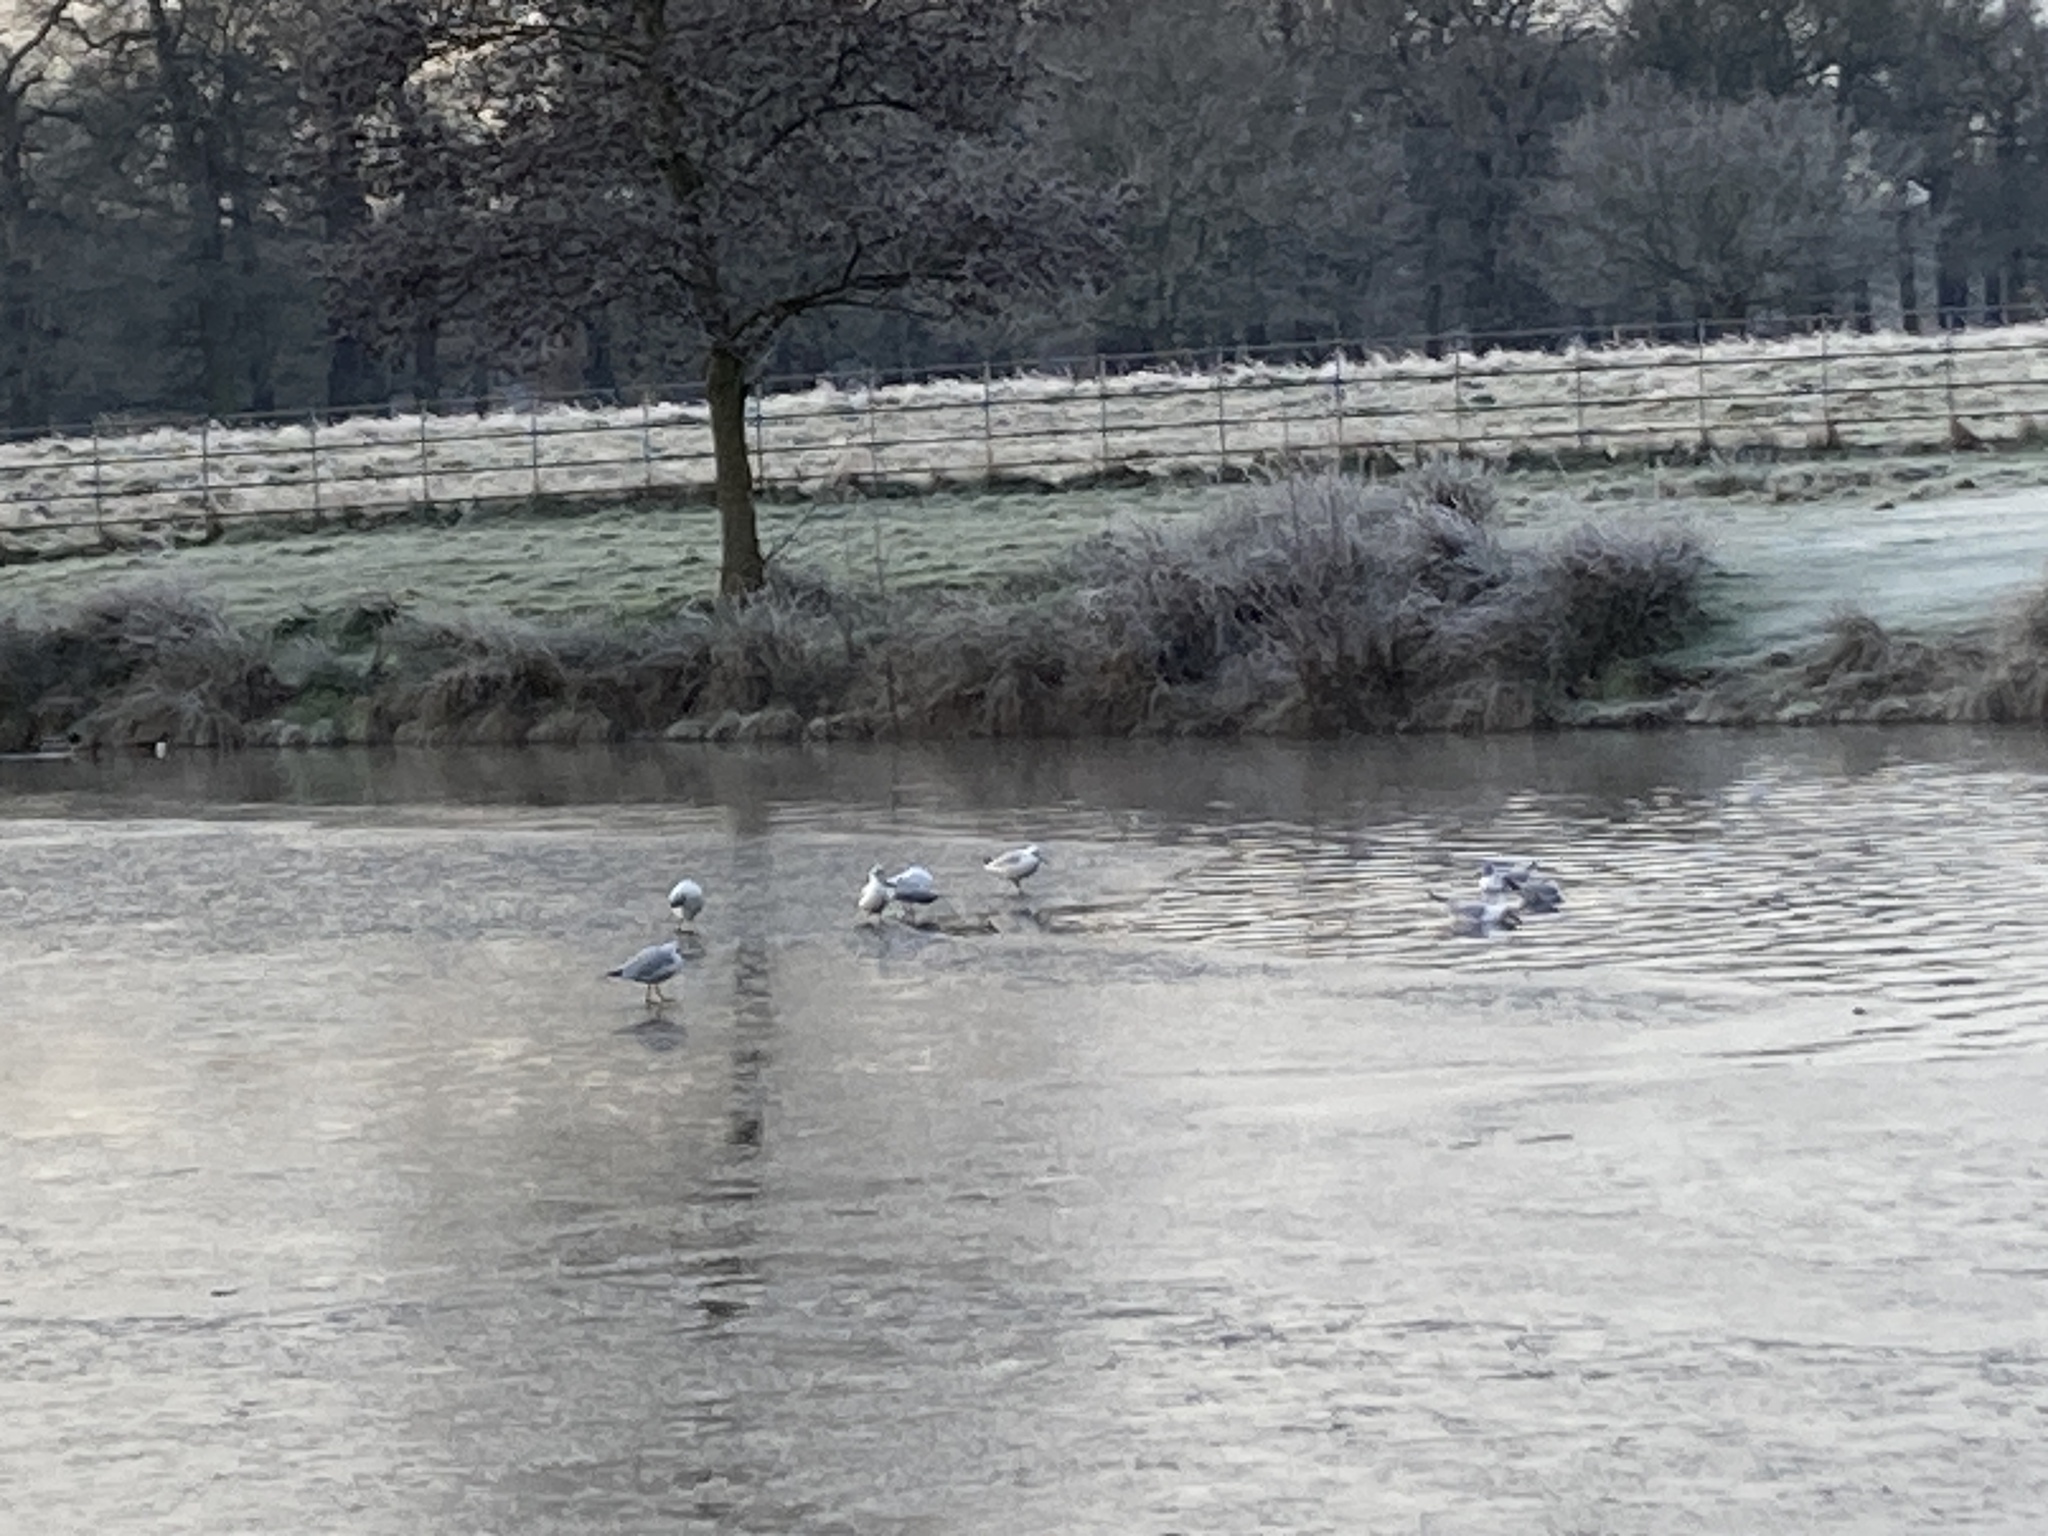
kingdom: Animalia
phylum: Chordata
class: Aves
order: Charadriiformes
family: Laridae
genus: Chroicocephalus
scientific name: Chroicocephalus ridibundus
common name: Black-headed gull
